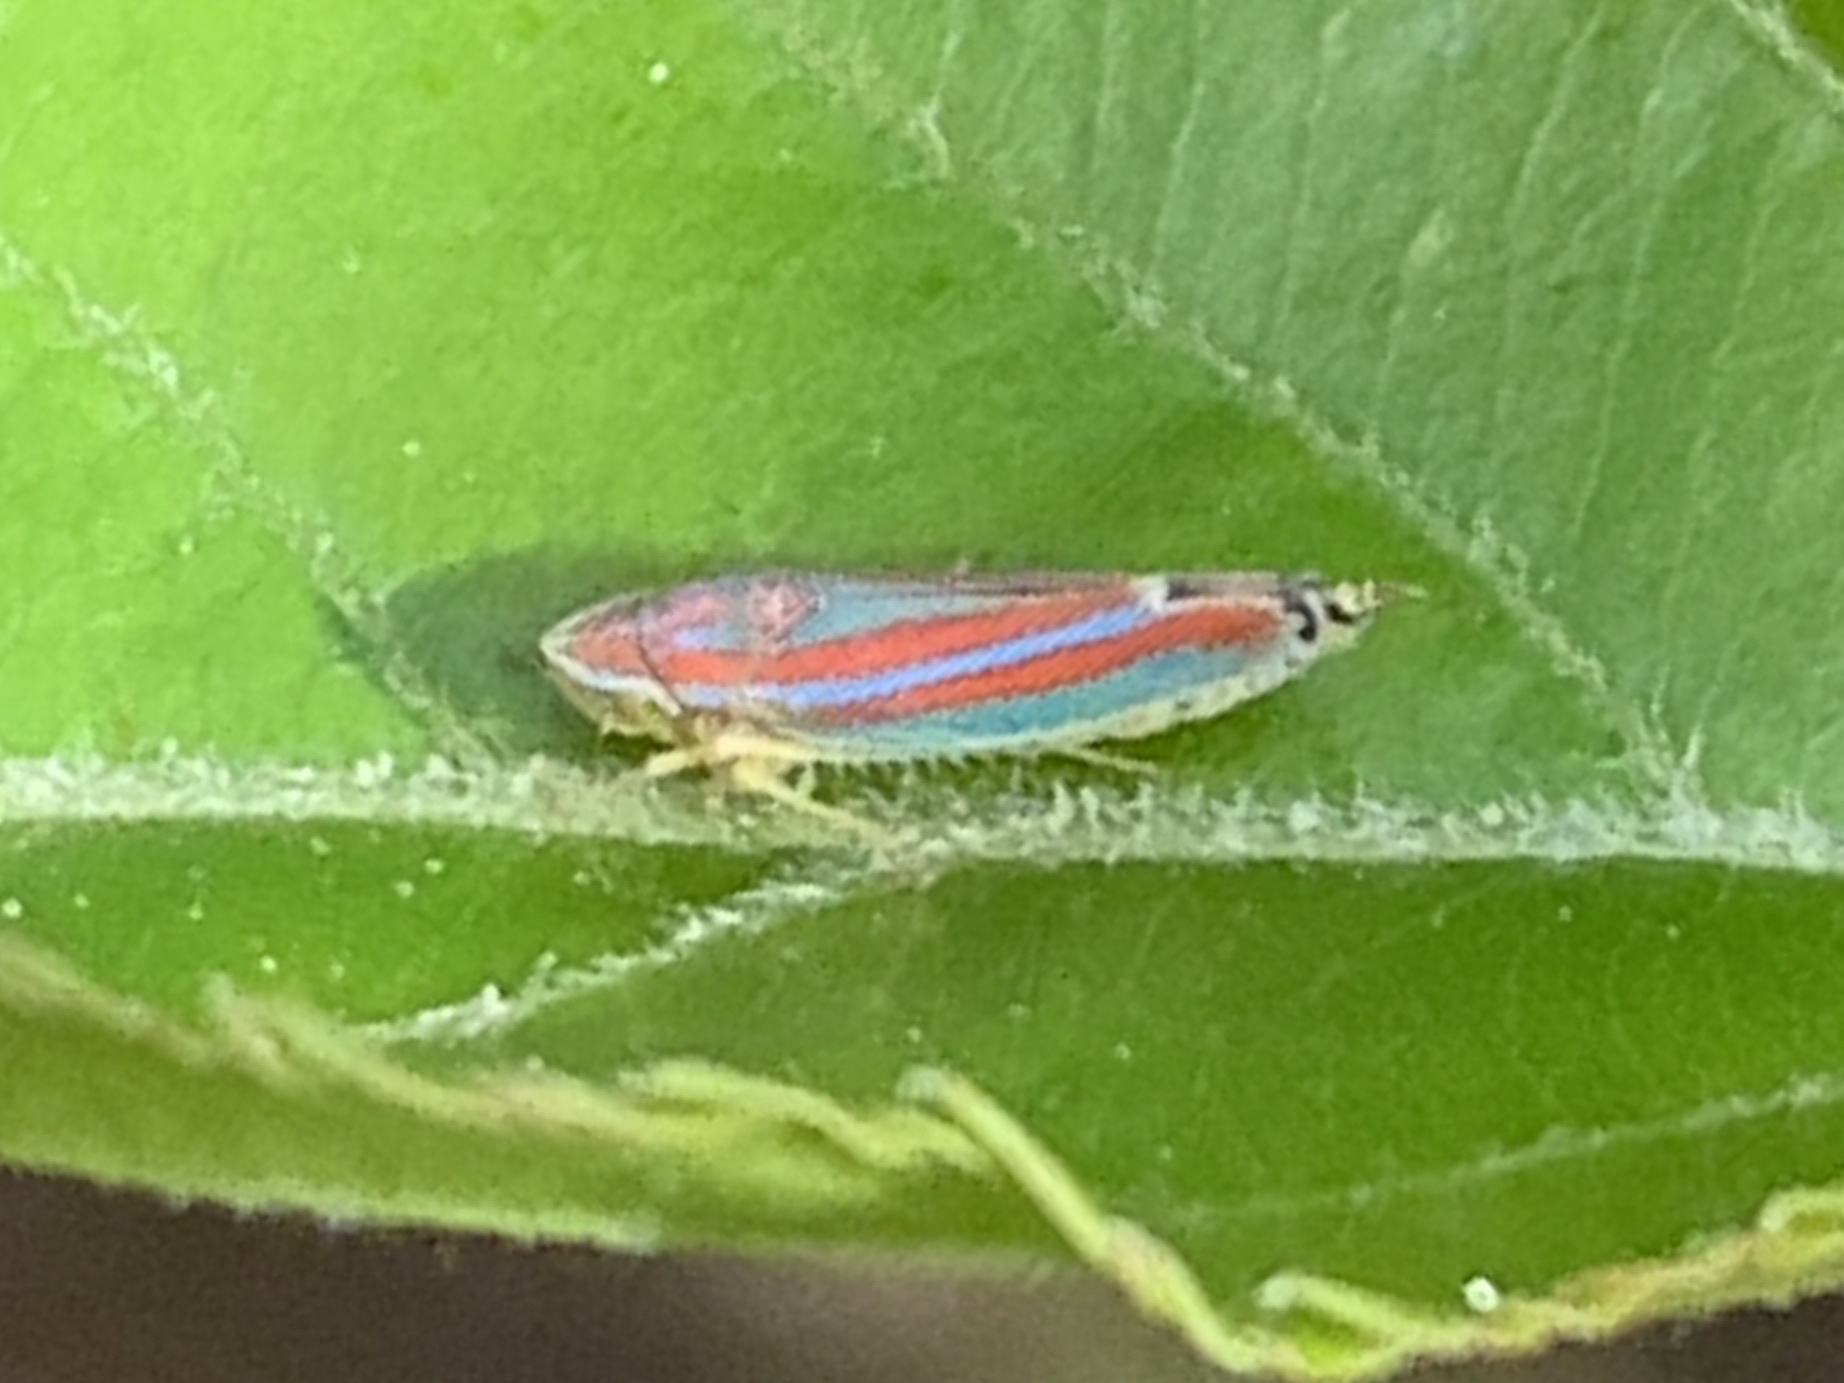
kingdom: Animalia
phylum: Arthropoda
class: Insecta
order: Hemiptera
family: Cicadellidae
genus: Graphocephala
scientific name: Graphocephala versuta
